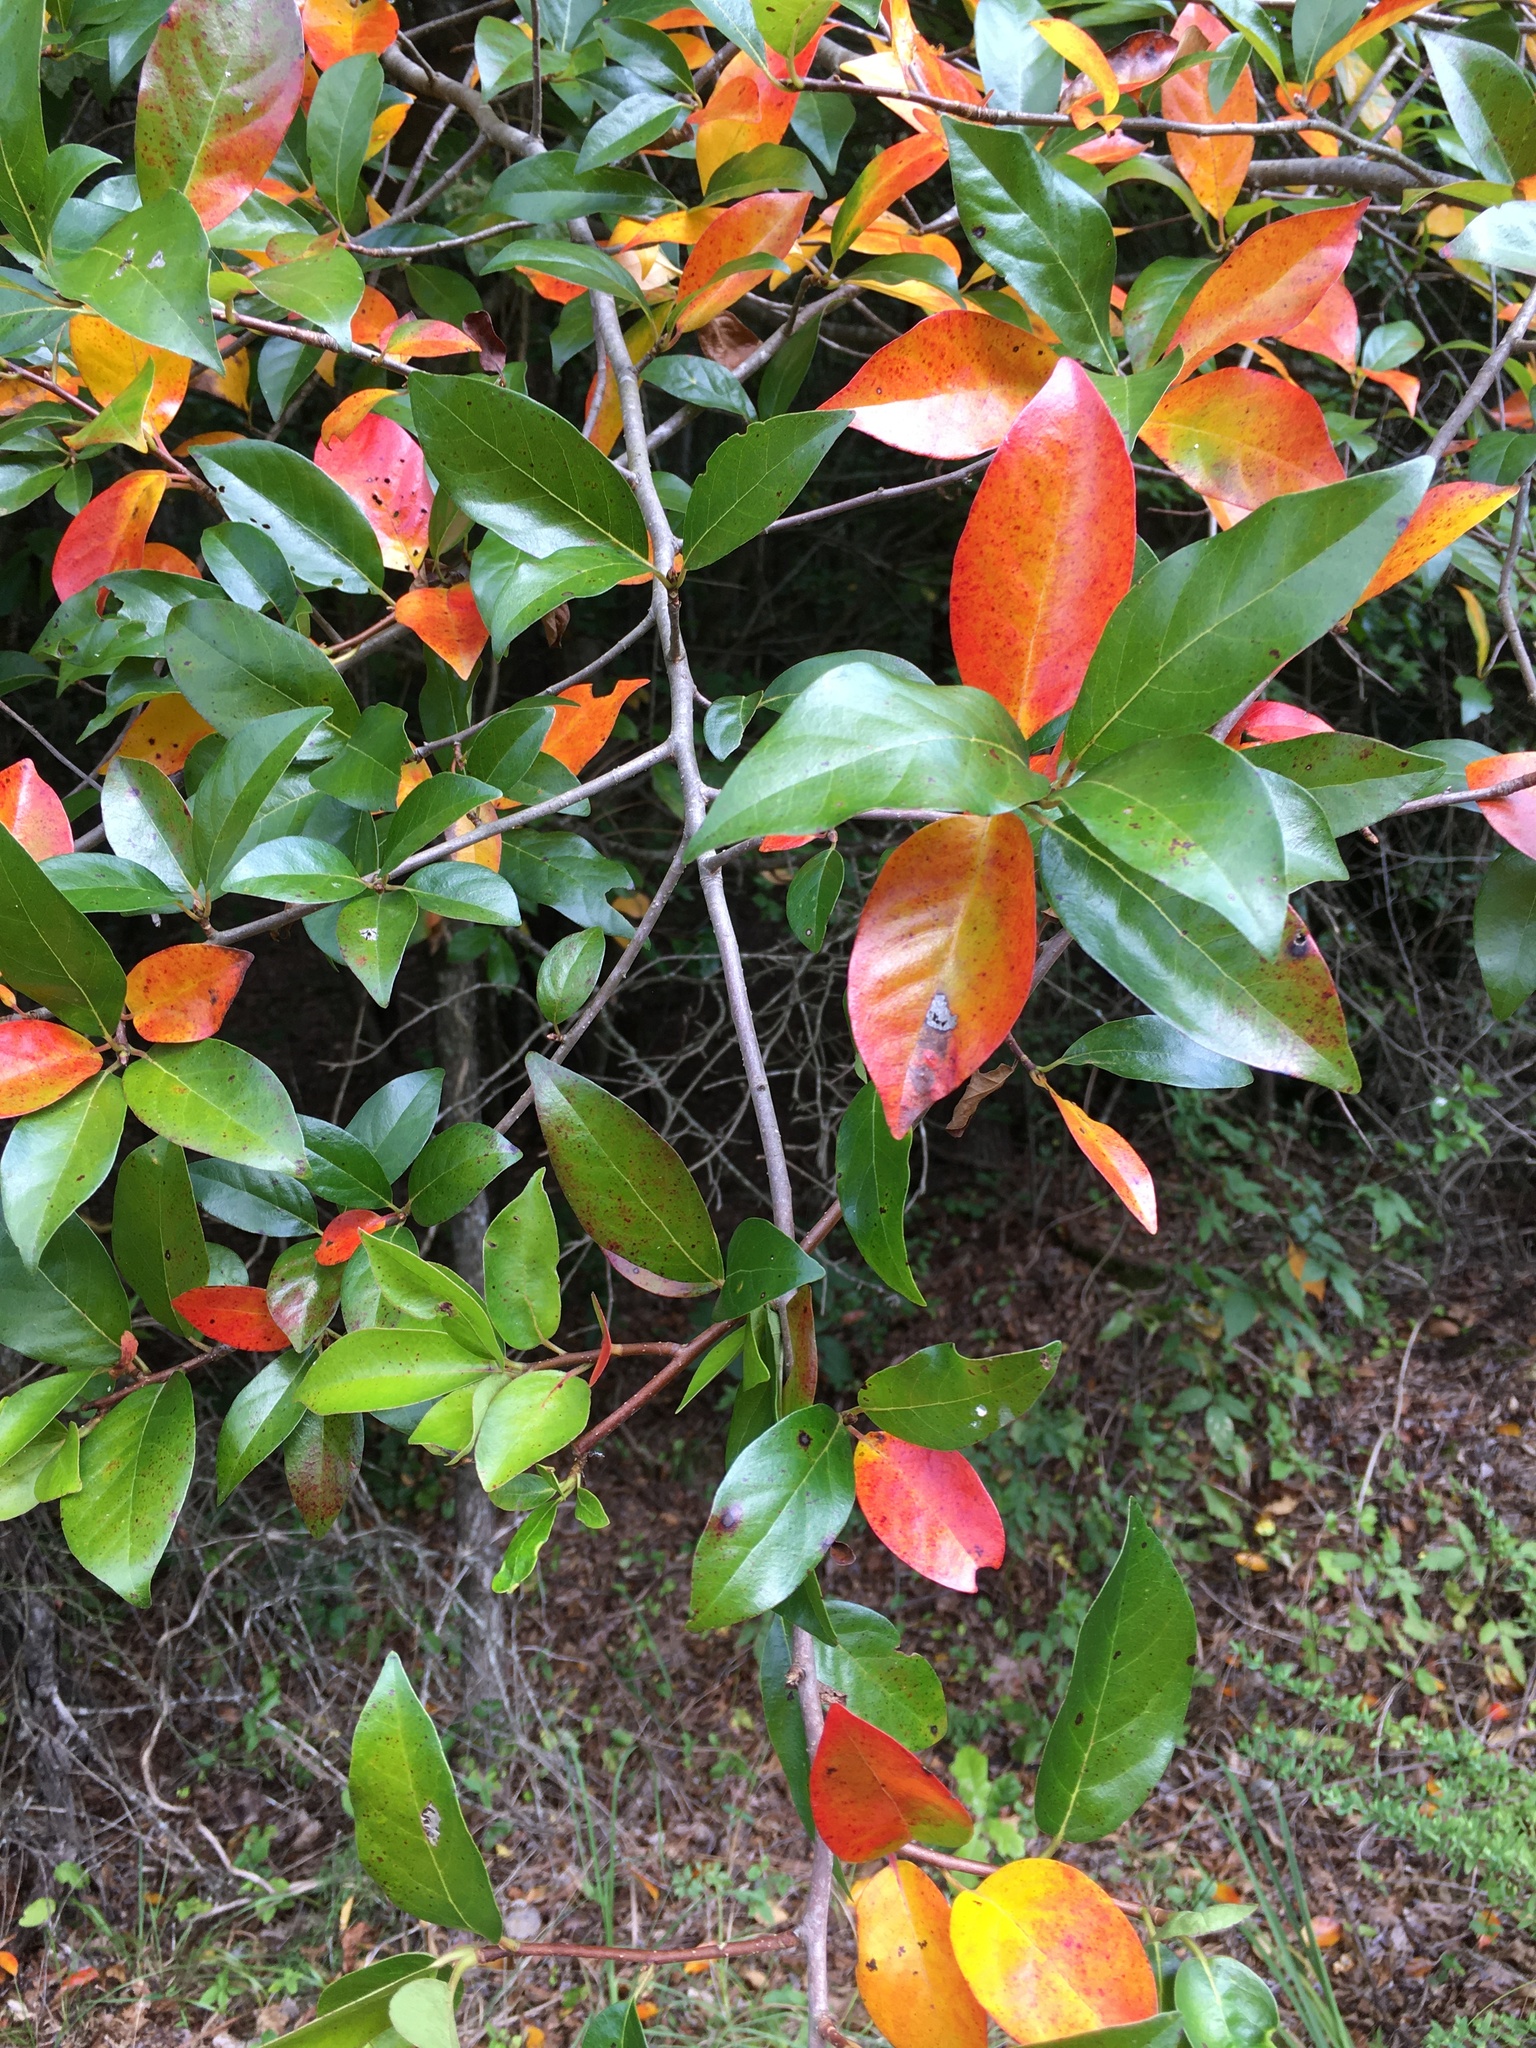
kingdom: Plantae
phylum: Tracheophyta
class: Magnoliopsida
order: Cornales
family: Nyssaceae
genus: Nyssa
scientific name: Nyssa sylvatica
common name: Black tupelo
